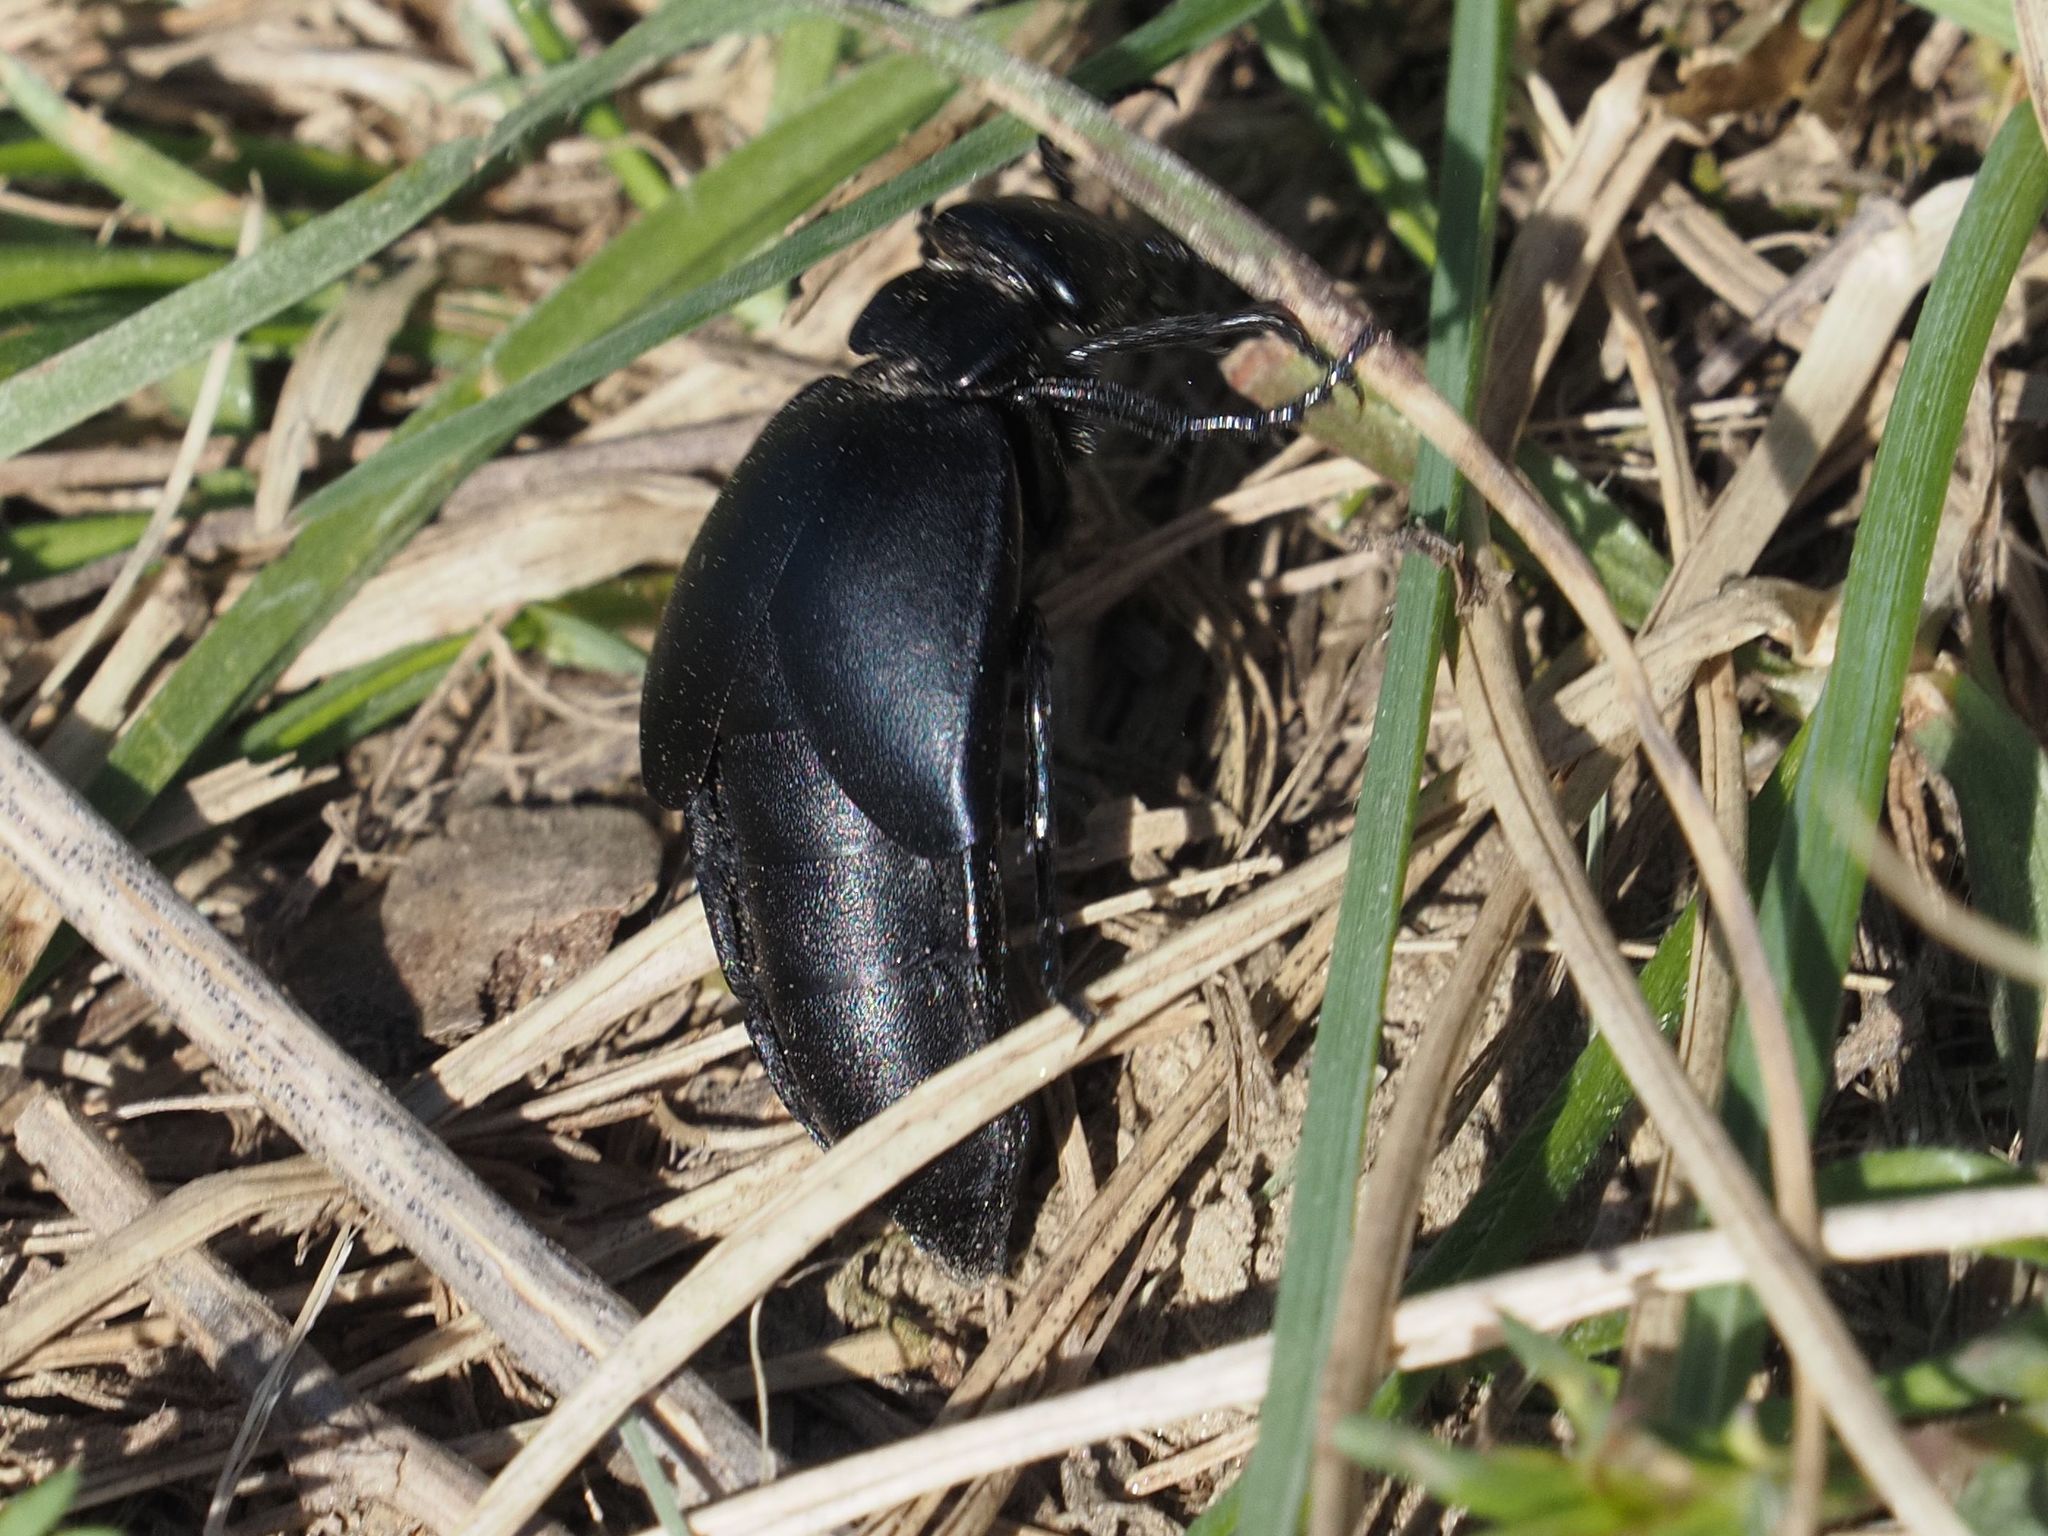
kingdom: Animalia
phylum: Arthropoda
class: Insecta
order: Coleoptera
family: Meloidae
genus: Meloe
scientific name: Meloe uralensis
